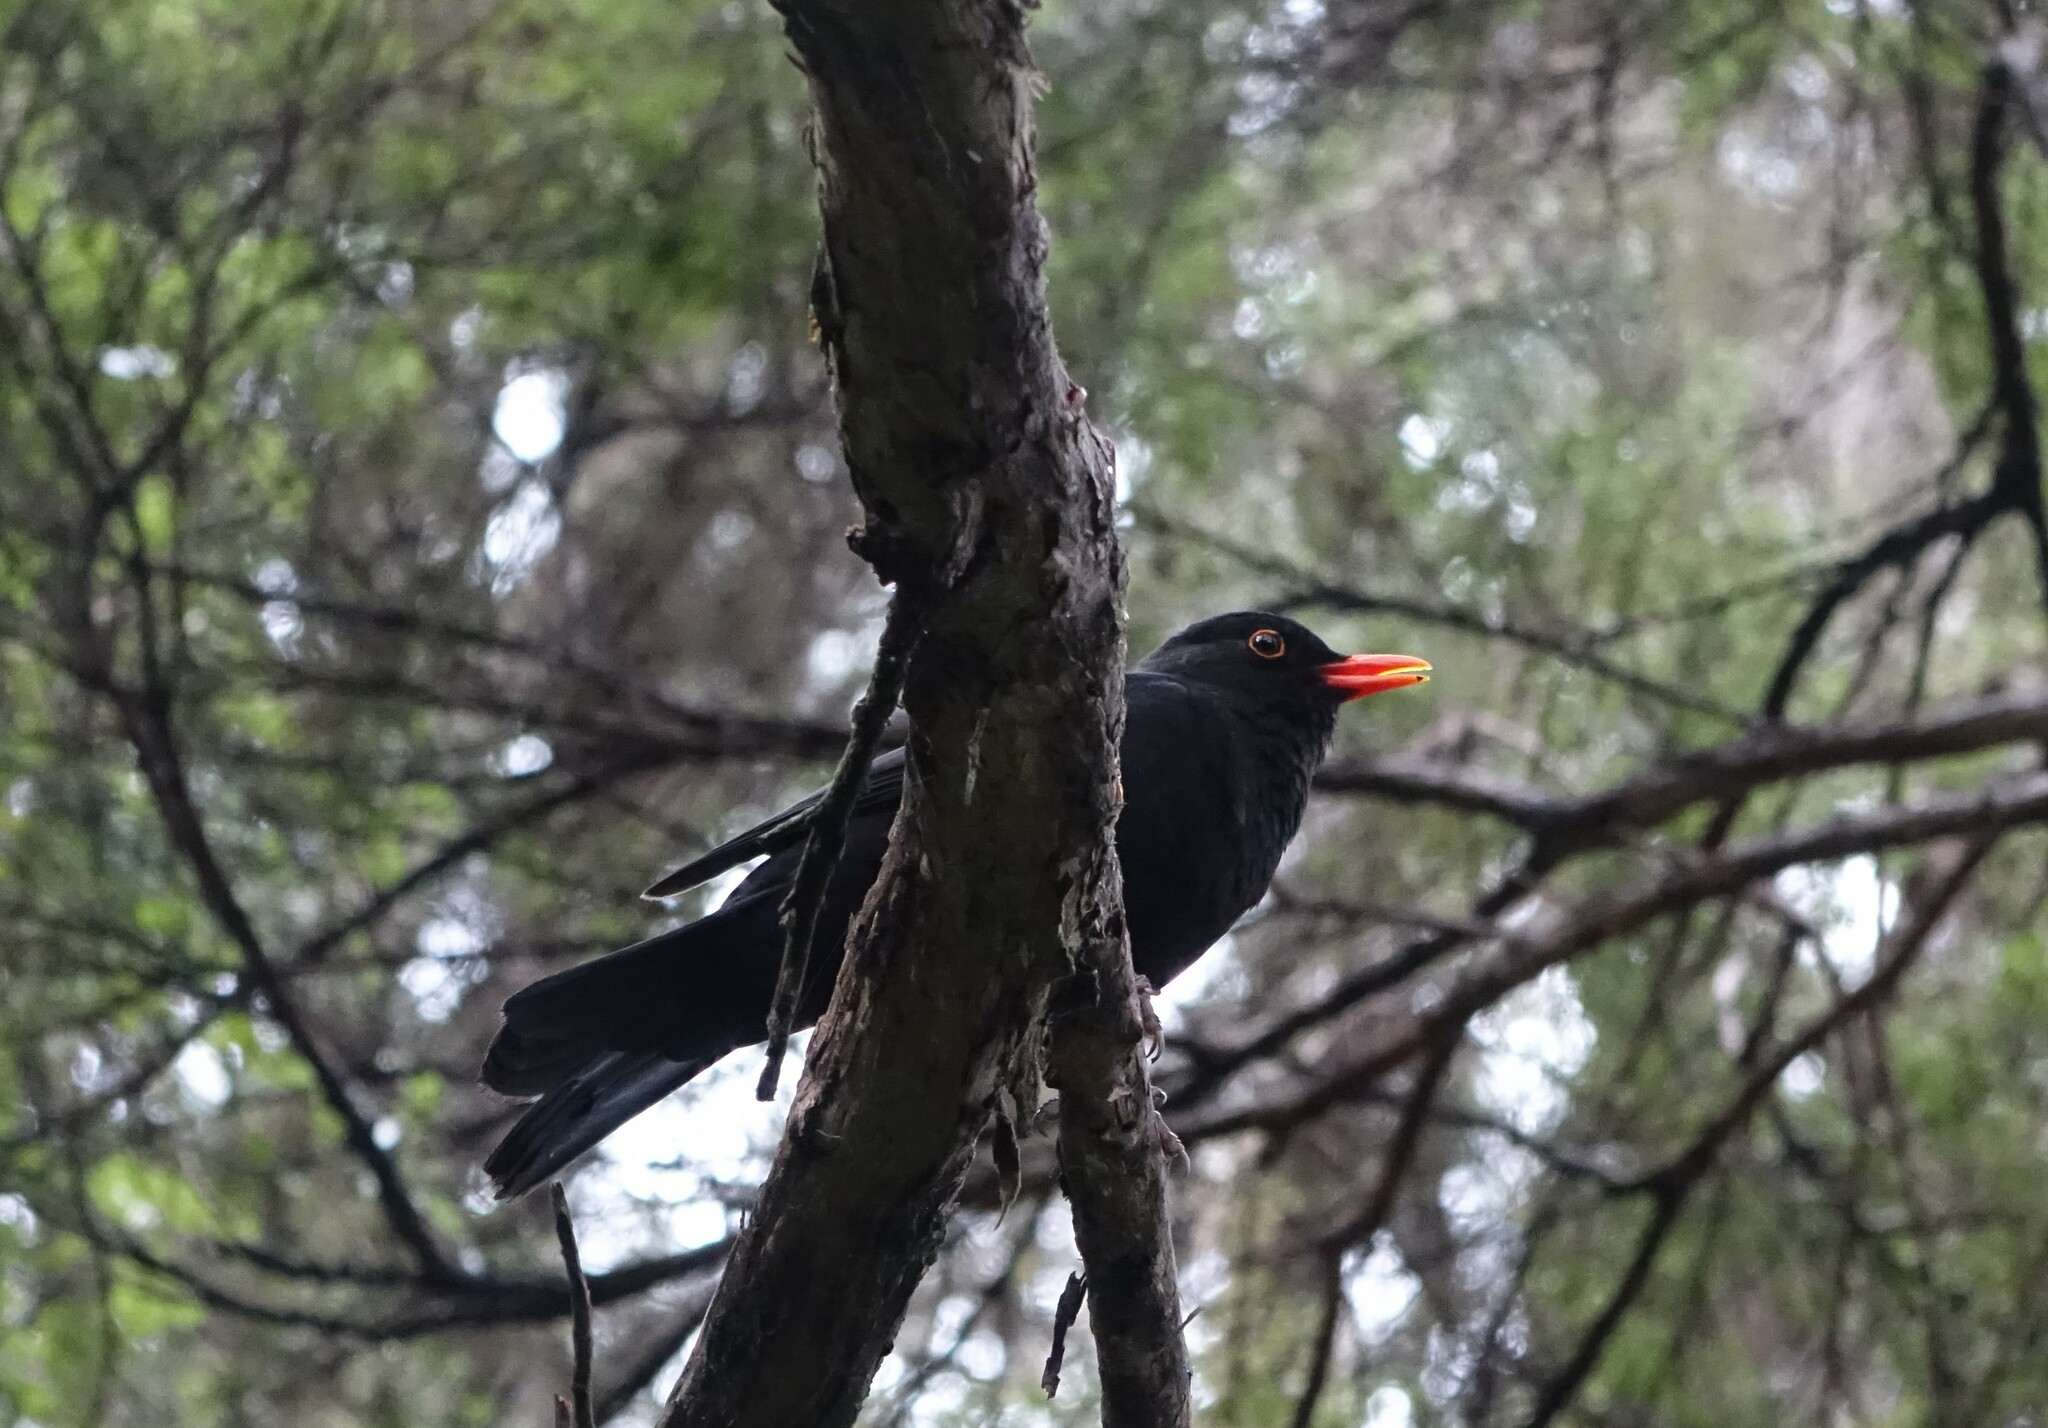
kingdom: Animalia
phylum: Chordata
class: Aves
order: Passeriformes
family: Turdidae
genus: Turdus
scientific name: Turdus merula
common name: Common blackbird
